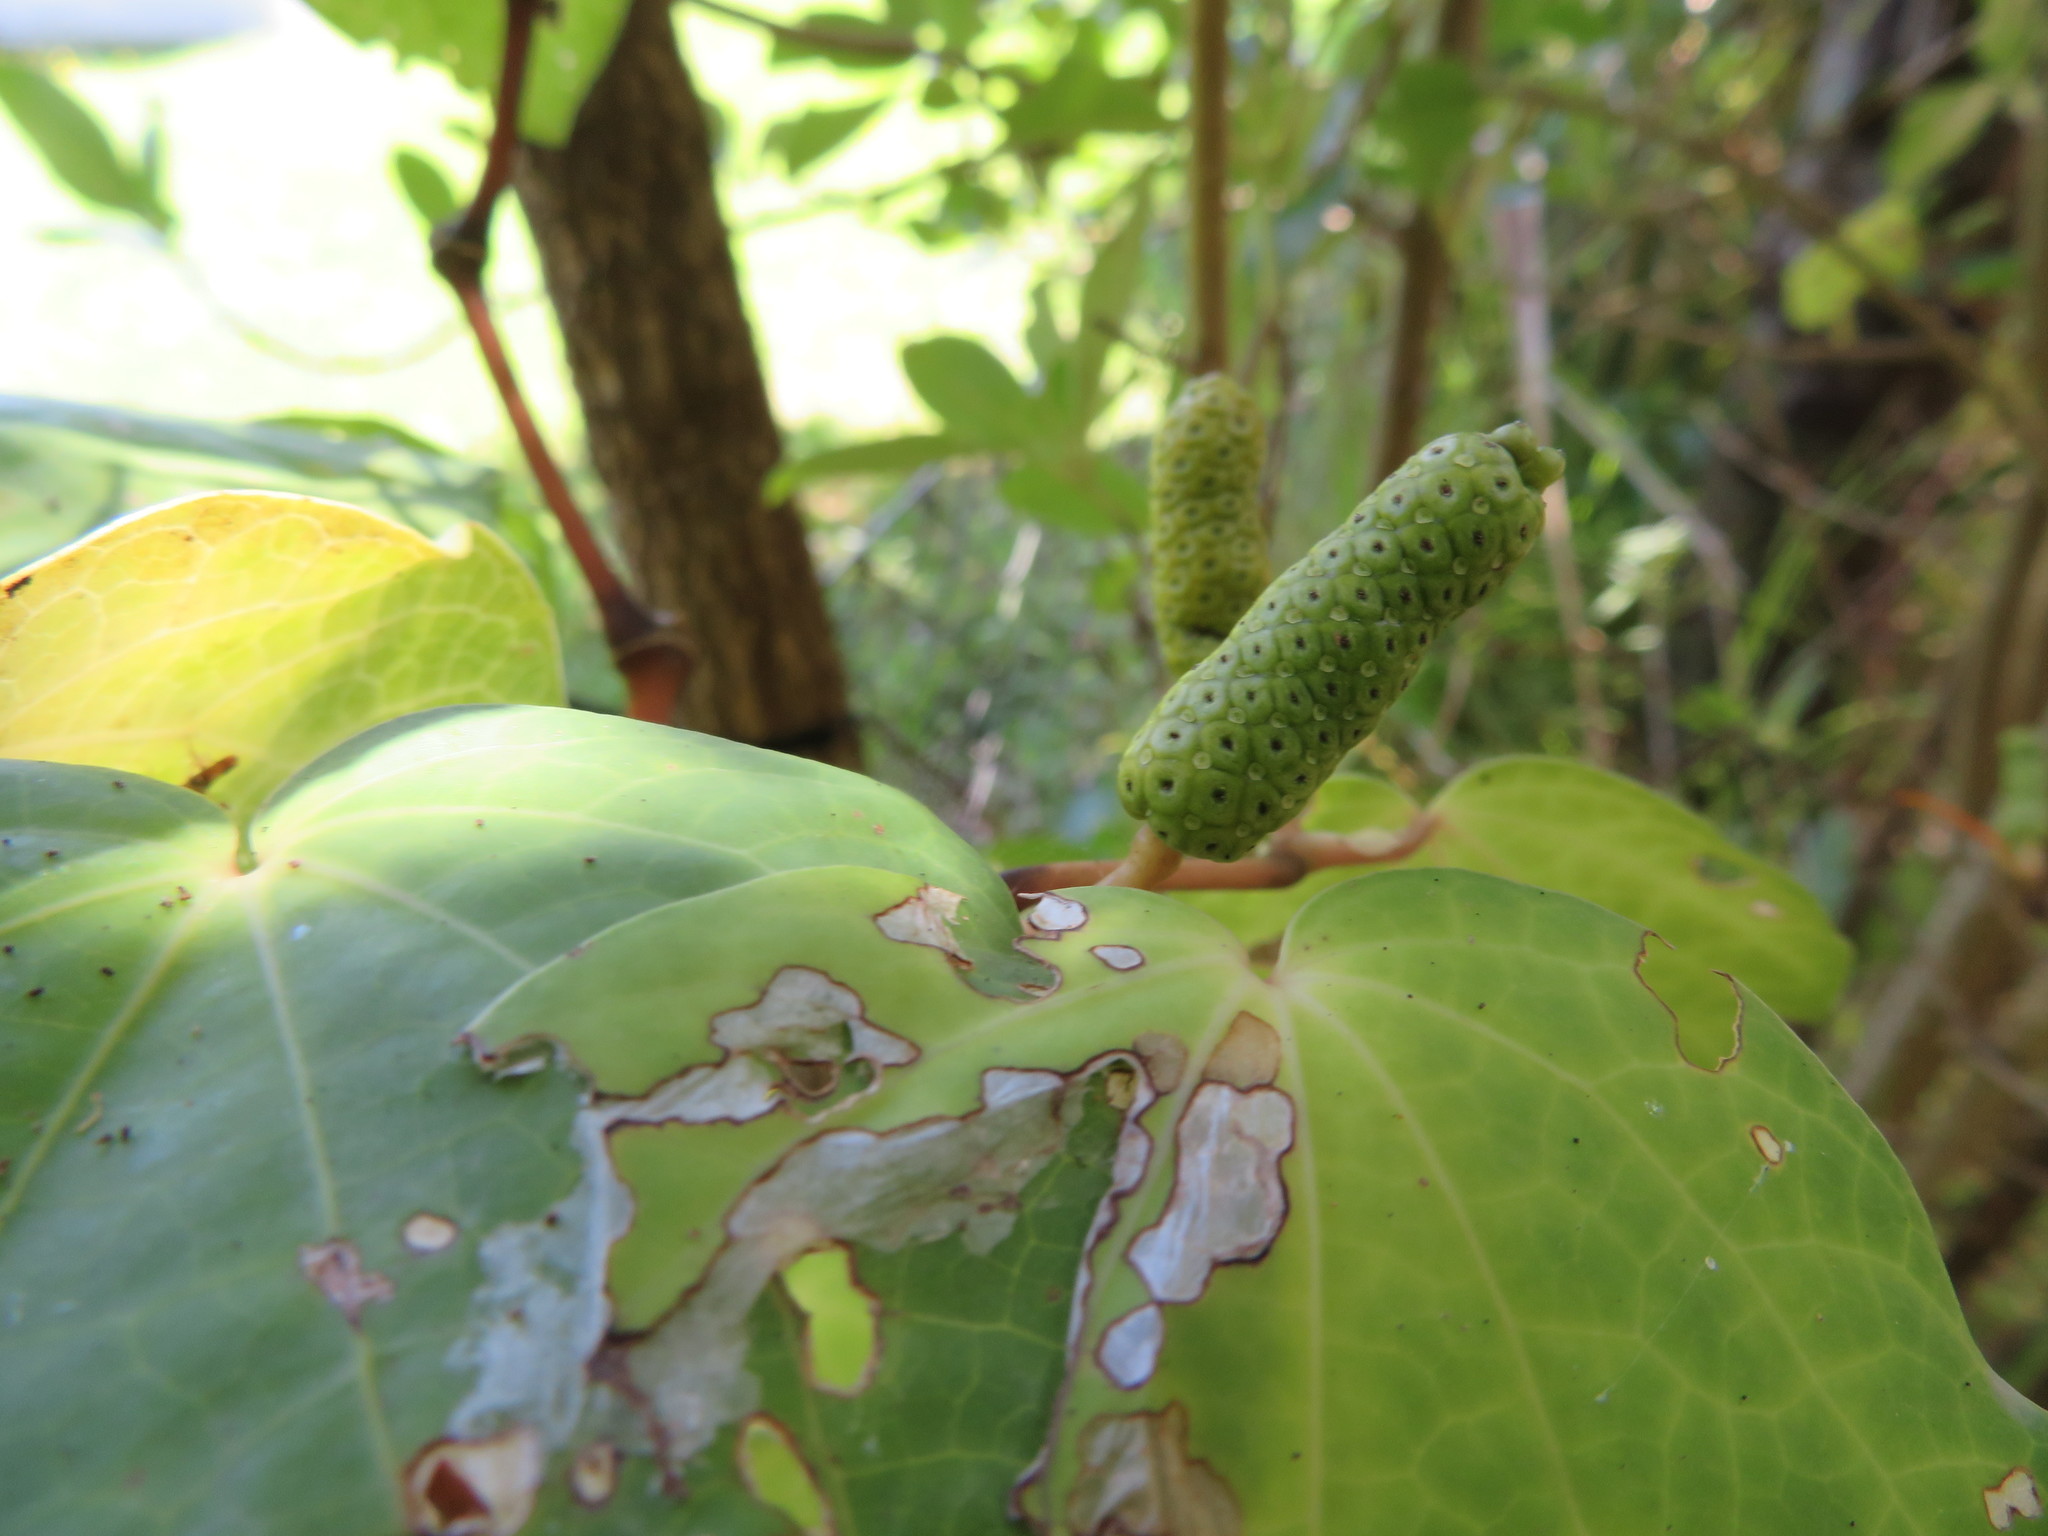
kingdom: Plantae
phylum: Tracheophyta
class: Magnoliopsida
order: Piperales
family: Piperaceae
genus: Macropiper
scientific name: Macropiper excelsum
